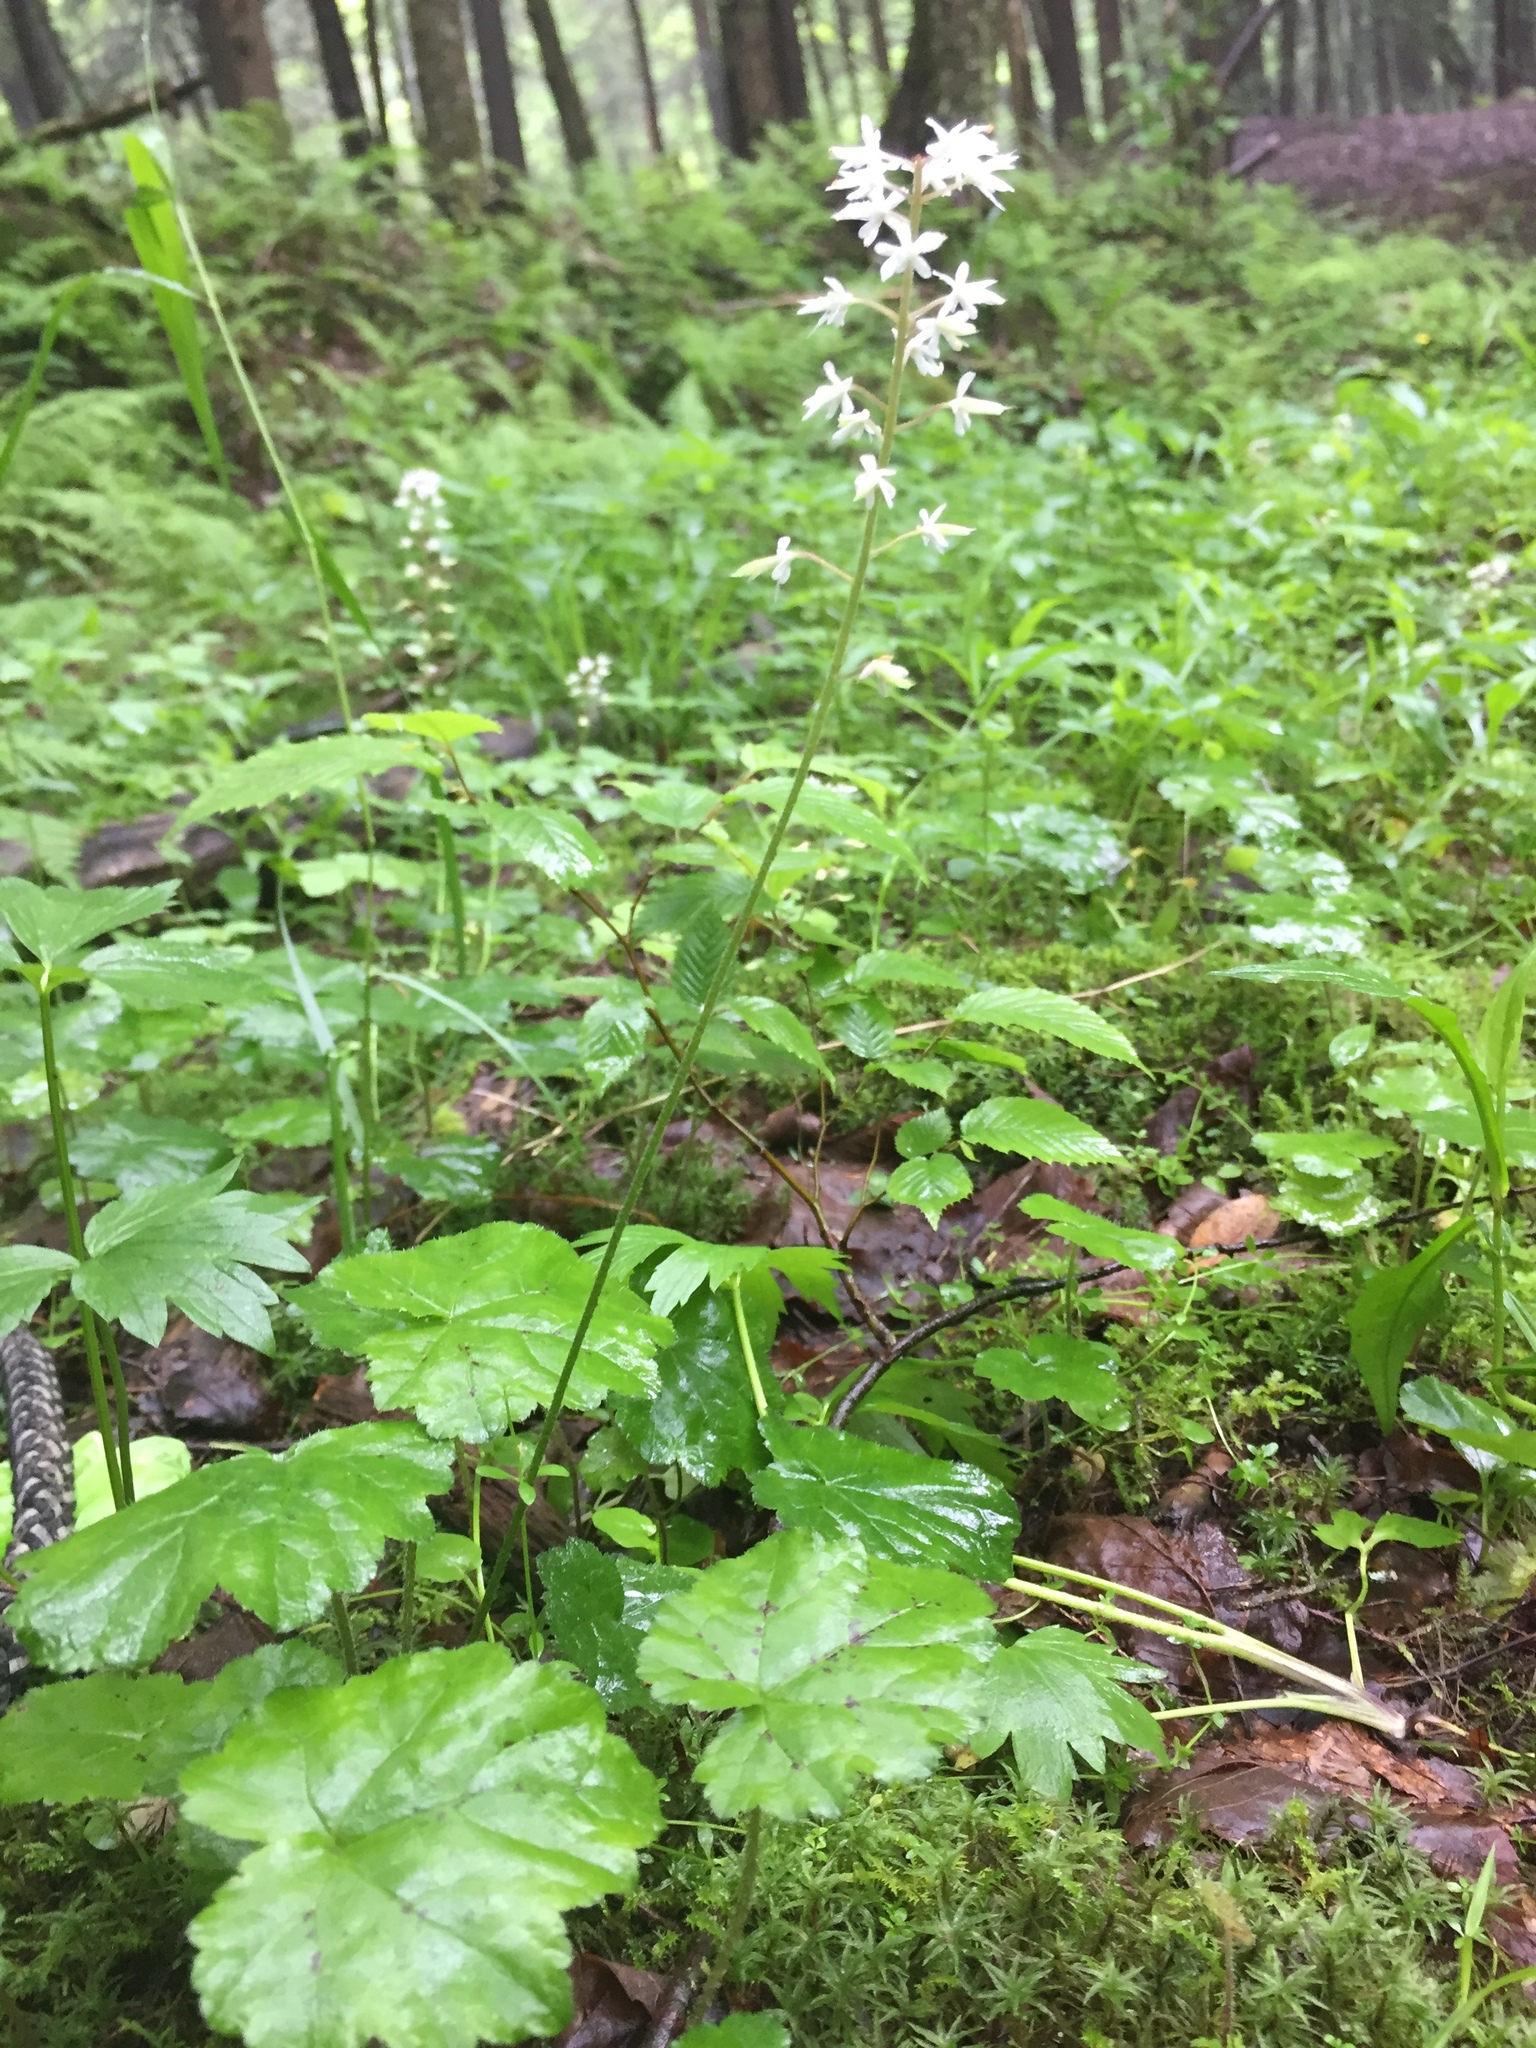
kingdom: Plantae
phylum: Tracheophyta
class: Magnoliopsida
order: Saxifragales
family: Saxifragaceae
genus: Tiarella
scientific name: Tiarella stolonifera
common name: Stoloniferous foamflower
